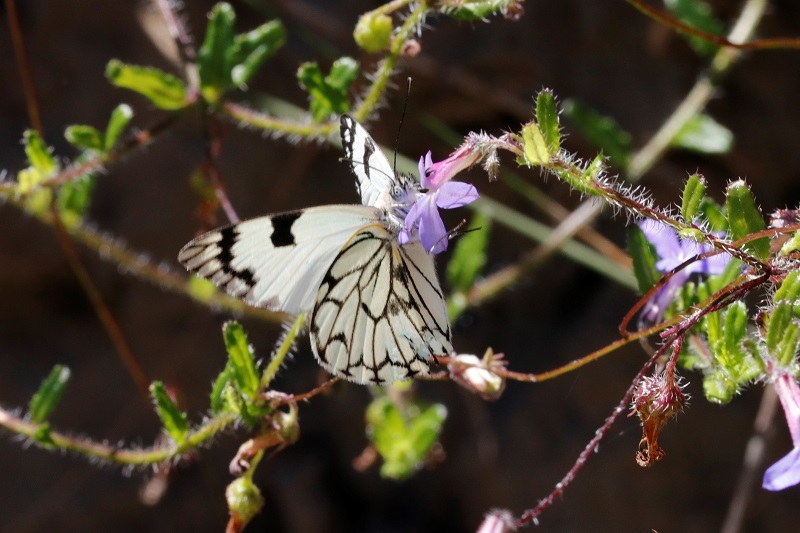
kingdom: Animalia
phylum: Arthropoda
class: Insecta
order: Lepidoptera
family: Pieridae
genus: Belenois
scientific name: Belenois zochalia
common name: Forest caper white
